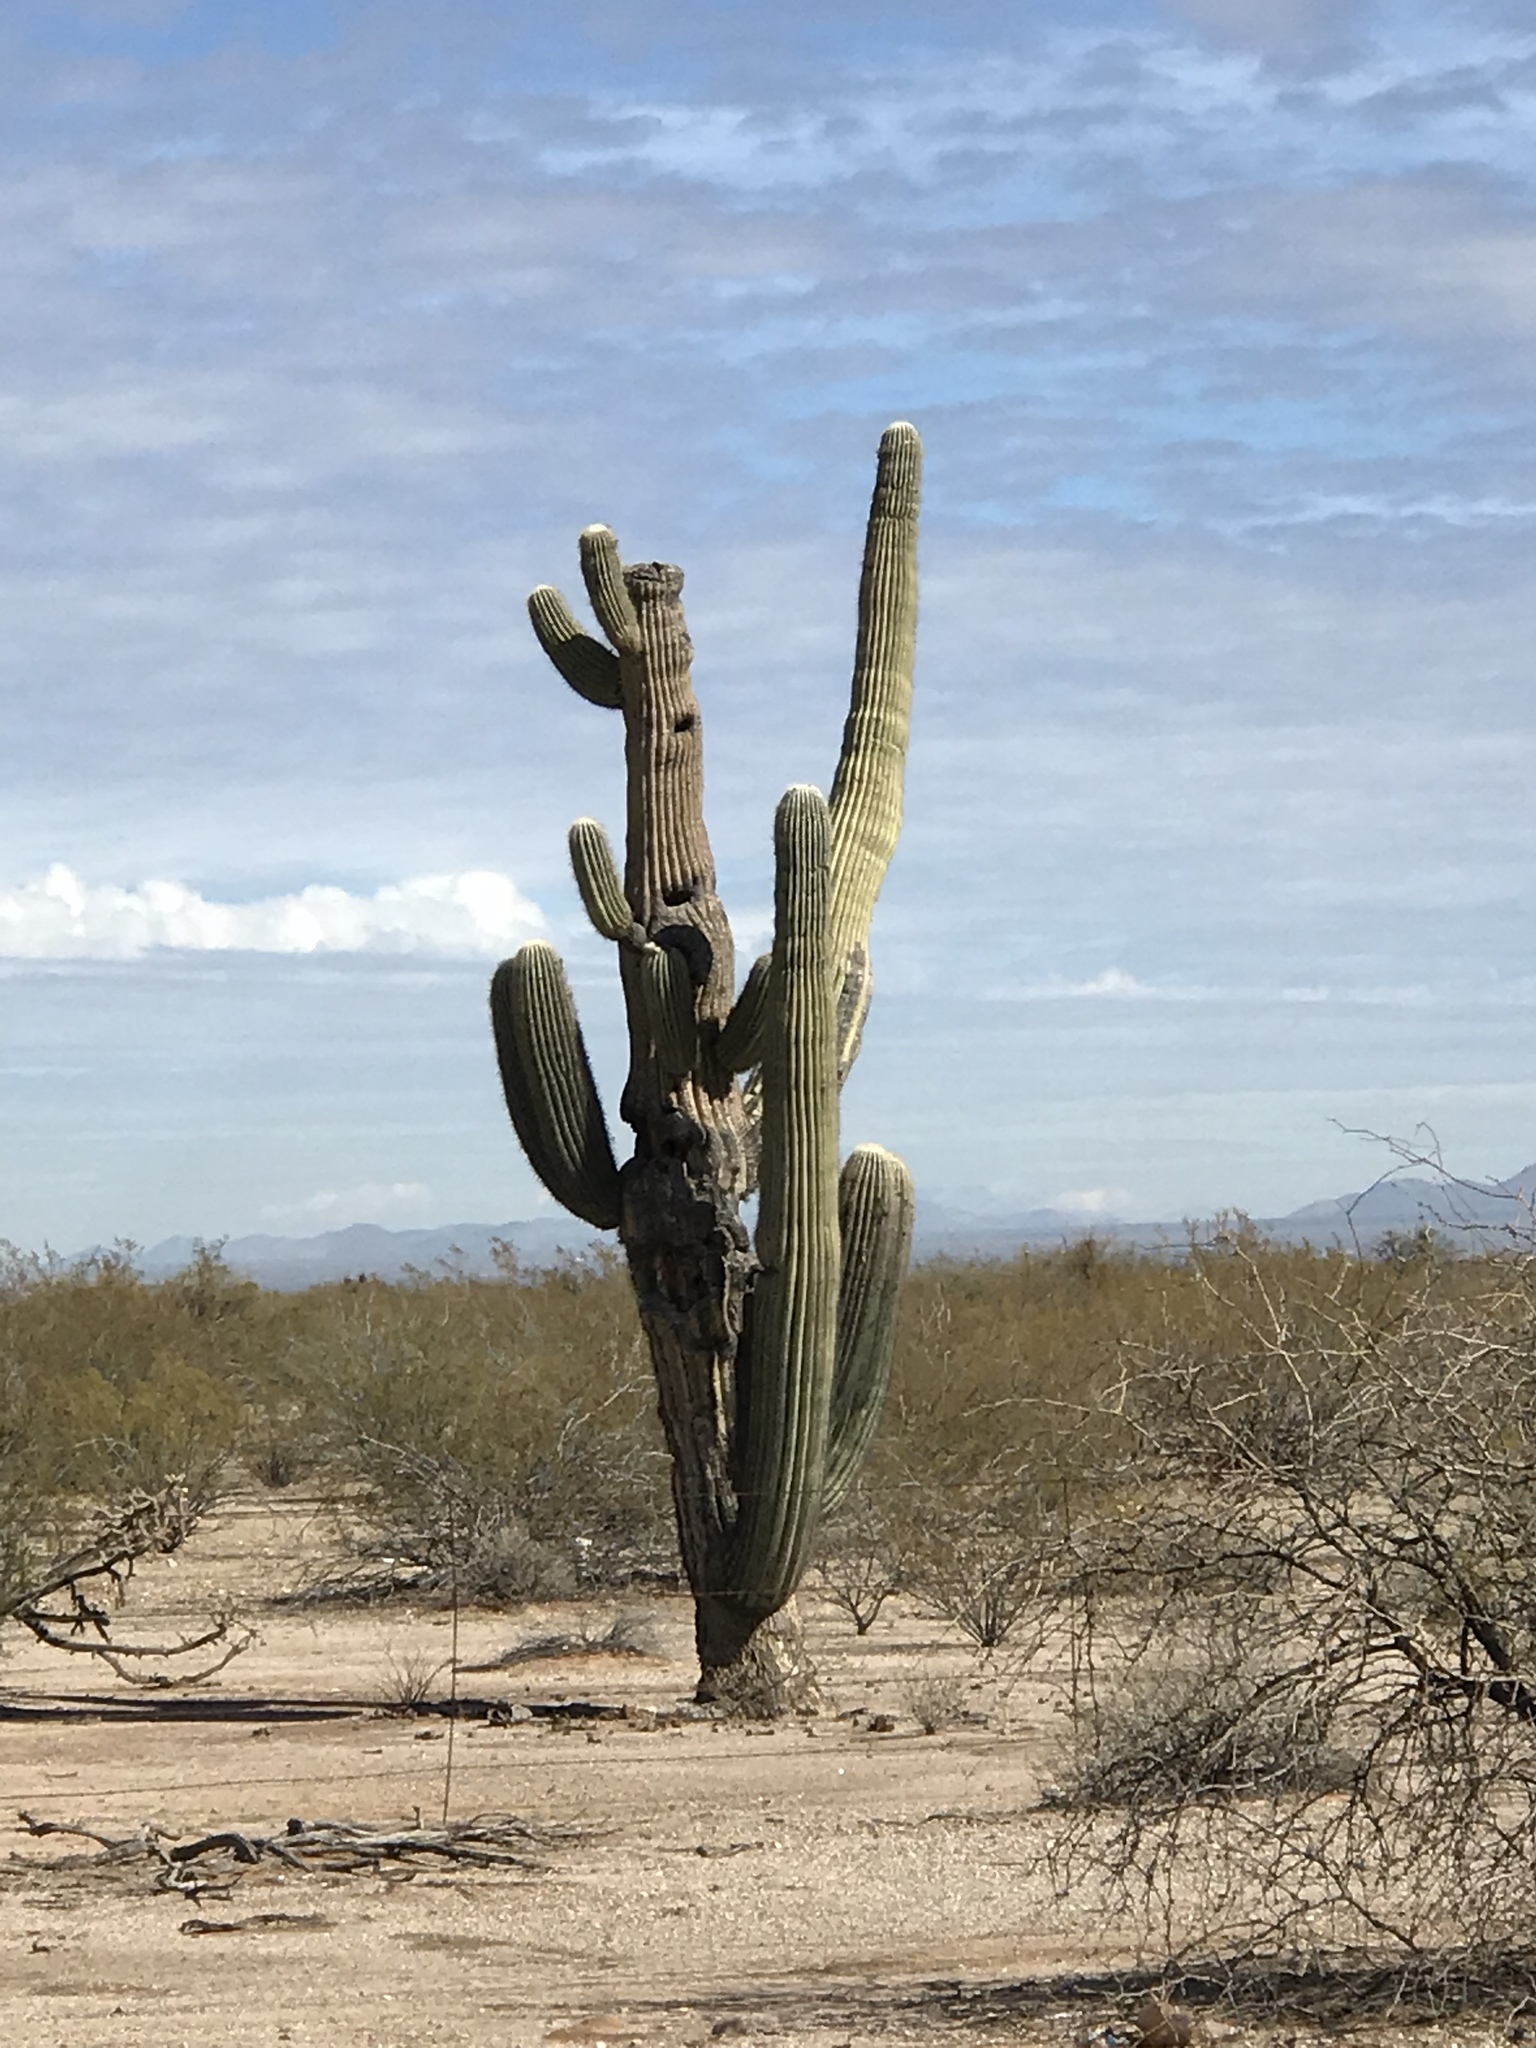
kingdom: Plantae
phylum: Tracheophyta
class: Magnoliopsida
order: Caryophyllales
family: Cactaceae
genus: Carnegiea
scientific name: Carnegiea gigantea
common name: Saguaro
